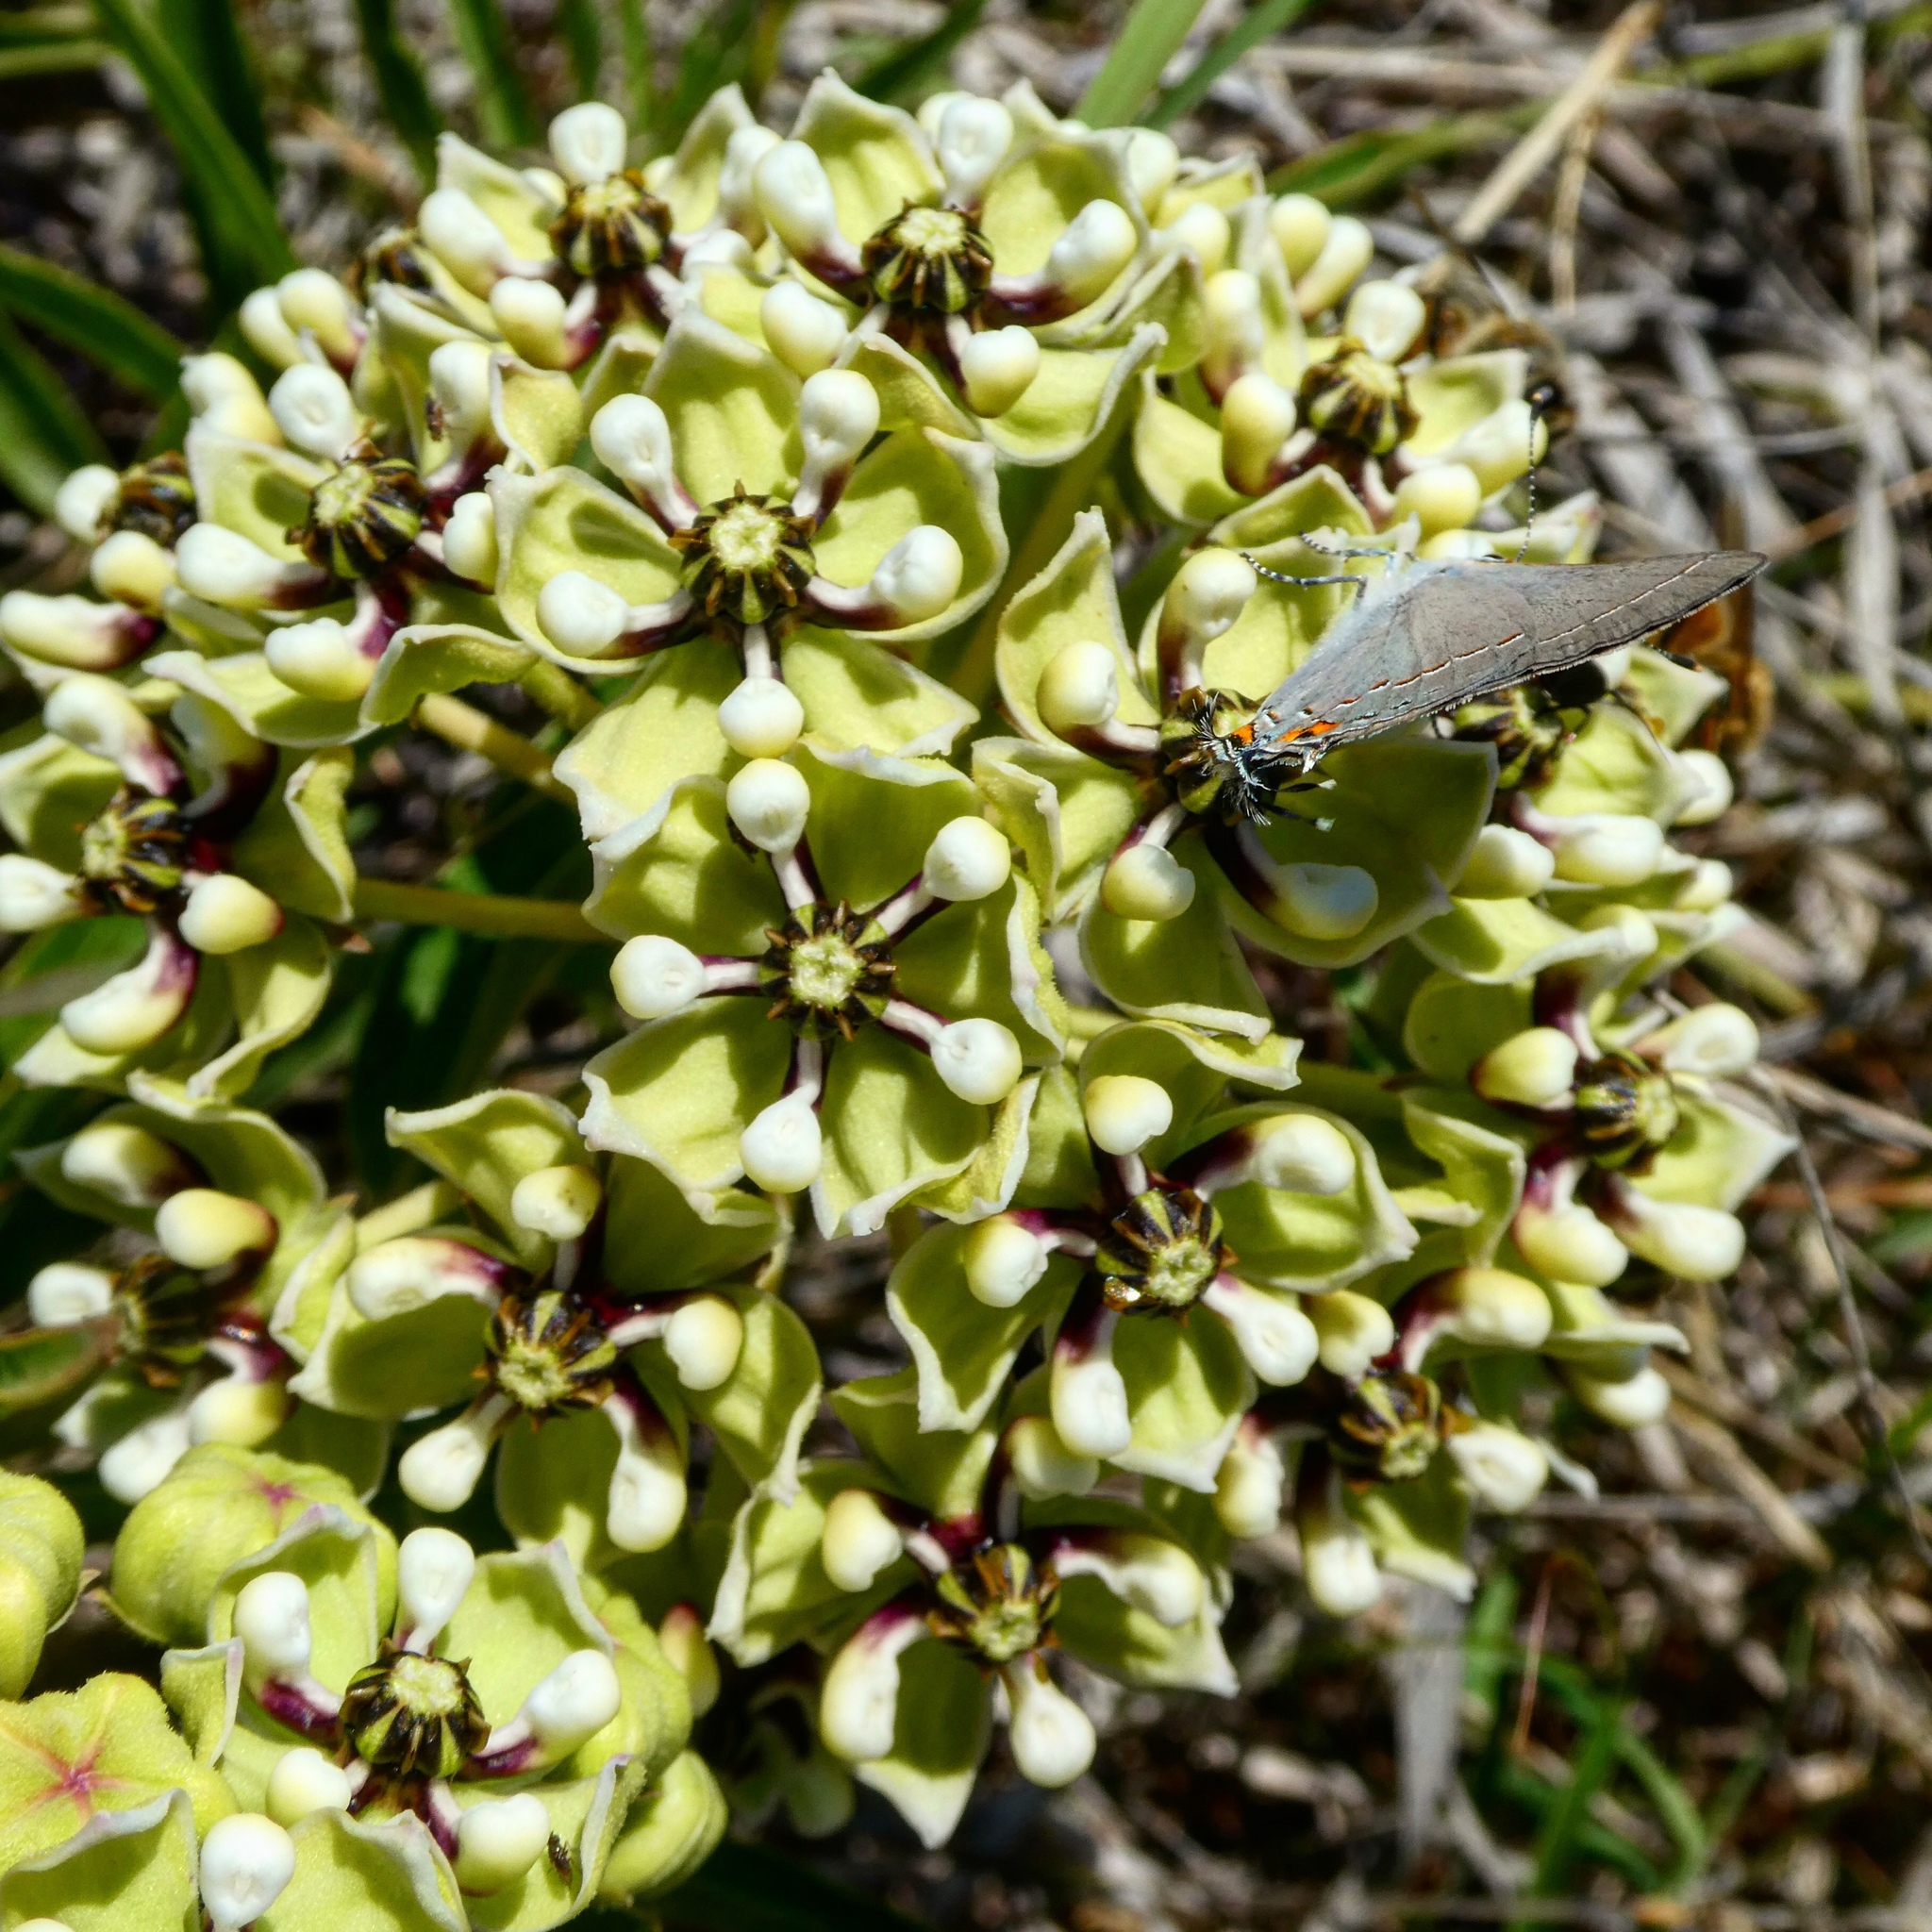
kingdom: Animalia
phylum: Arthropoda
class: Insecta
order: Lepidoptera
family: Lycaenidae
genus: Strymon
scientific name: Strymon melinus
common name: Gray hairstreak
